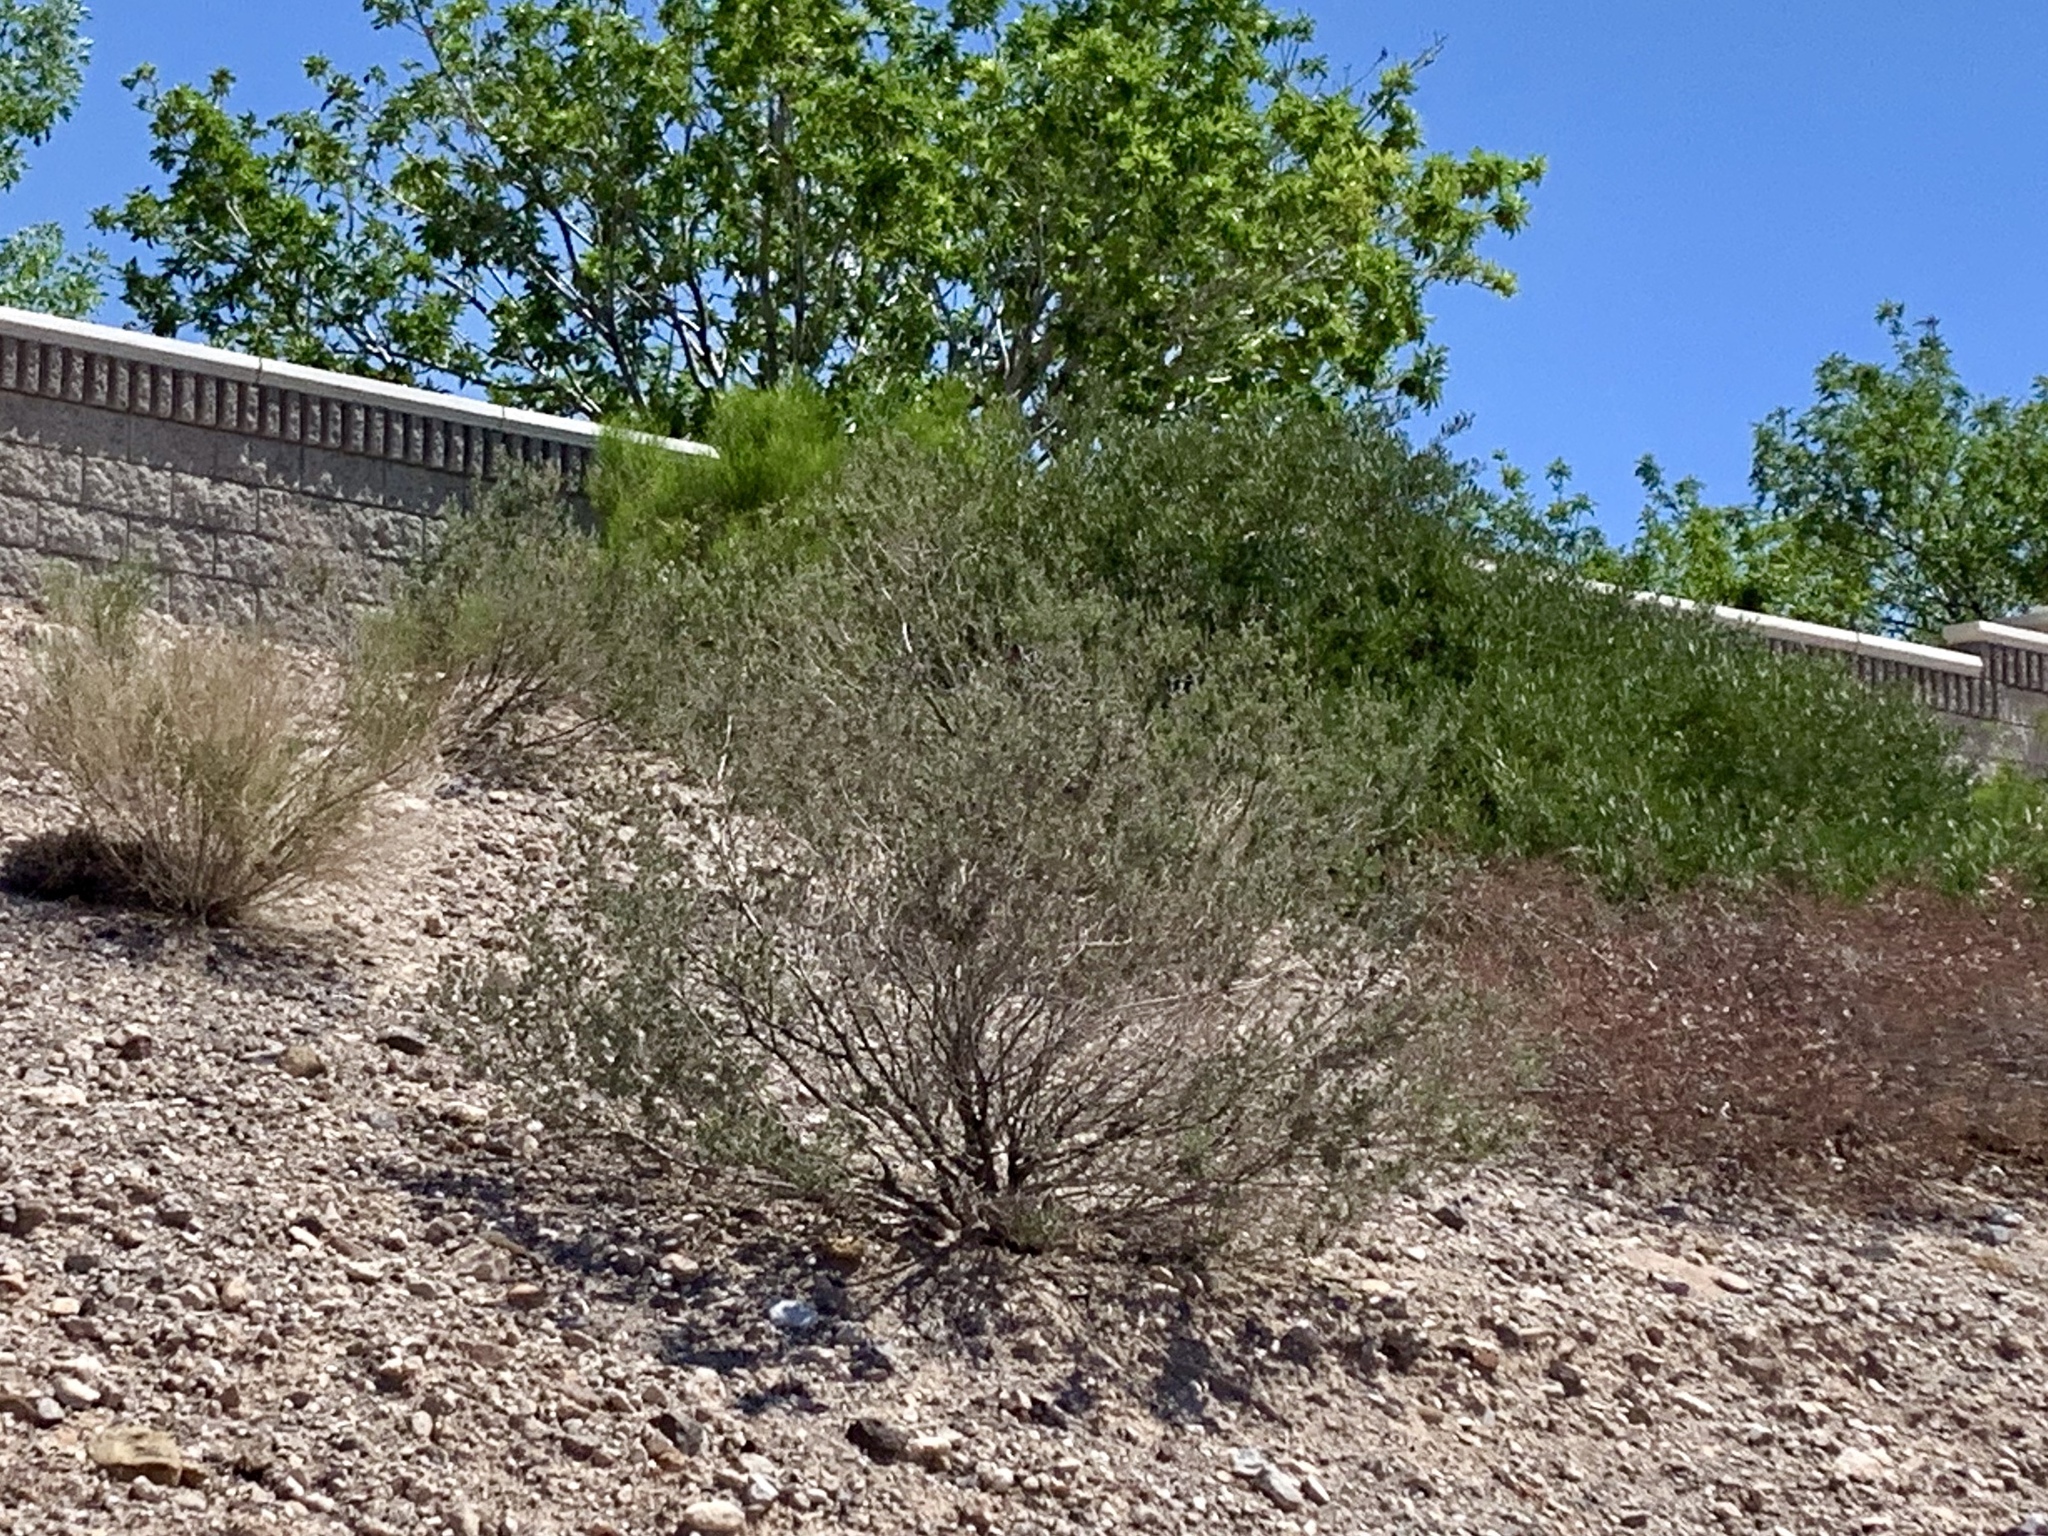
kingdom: Plantae
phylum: Tracheophyta
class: Magnoliopsida
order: Zygophyllales
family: Zygophyllaceae
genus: Larrea
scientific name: Larrea tridentata
